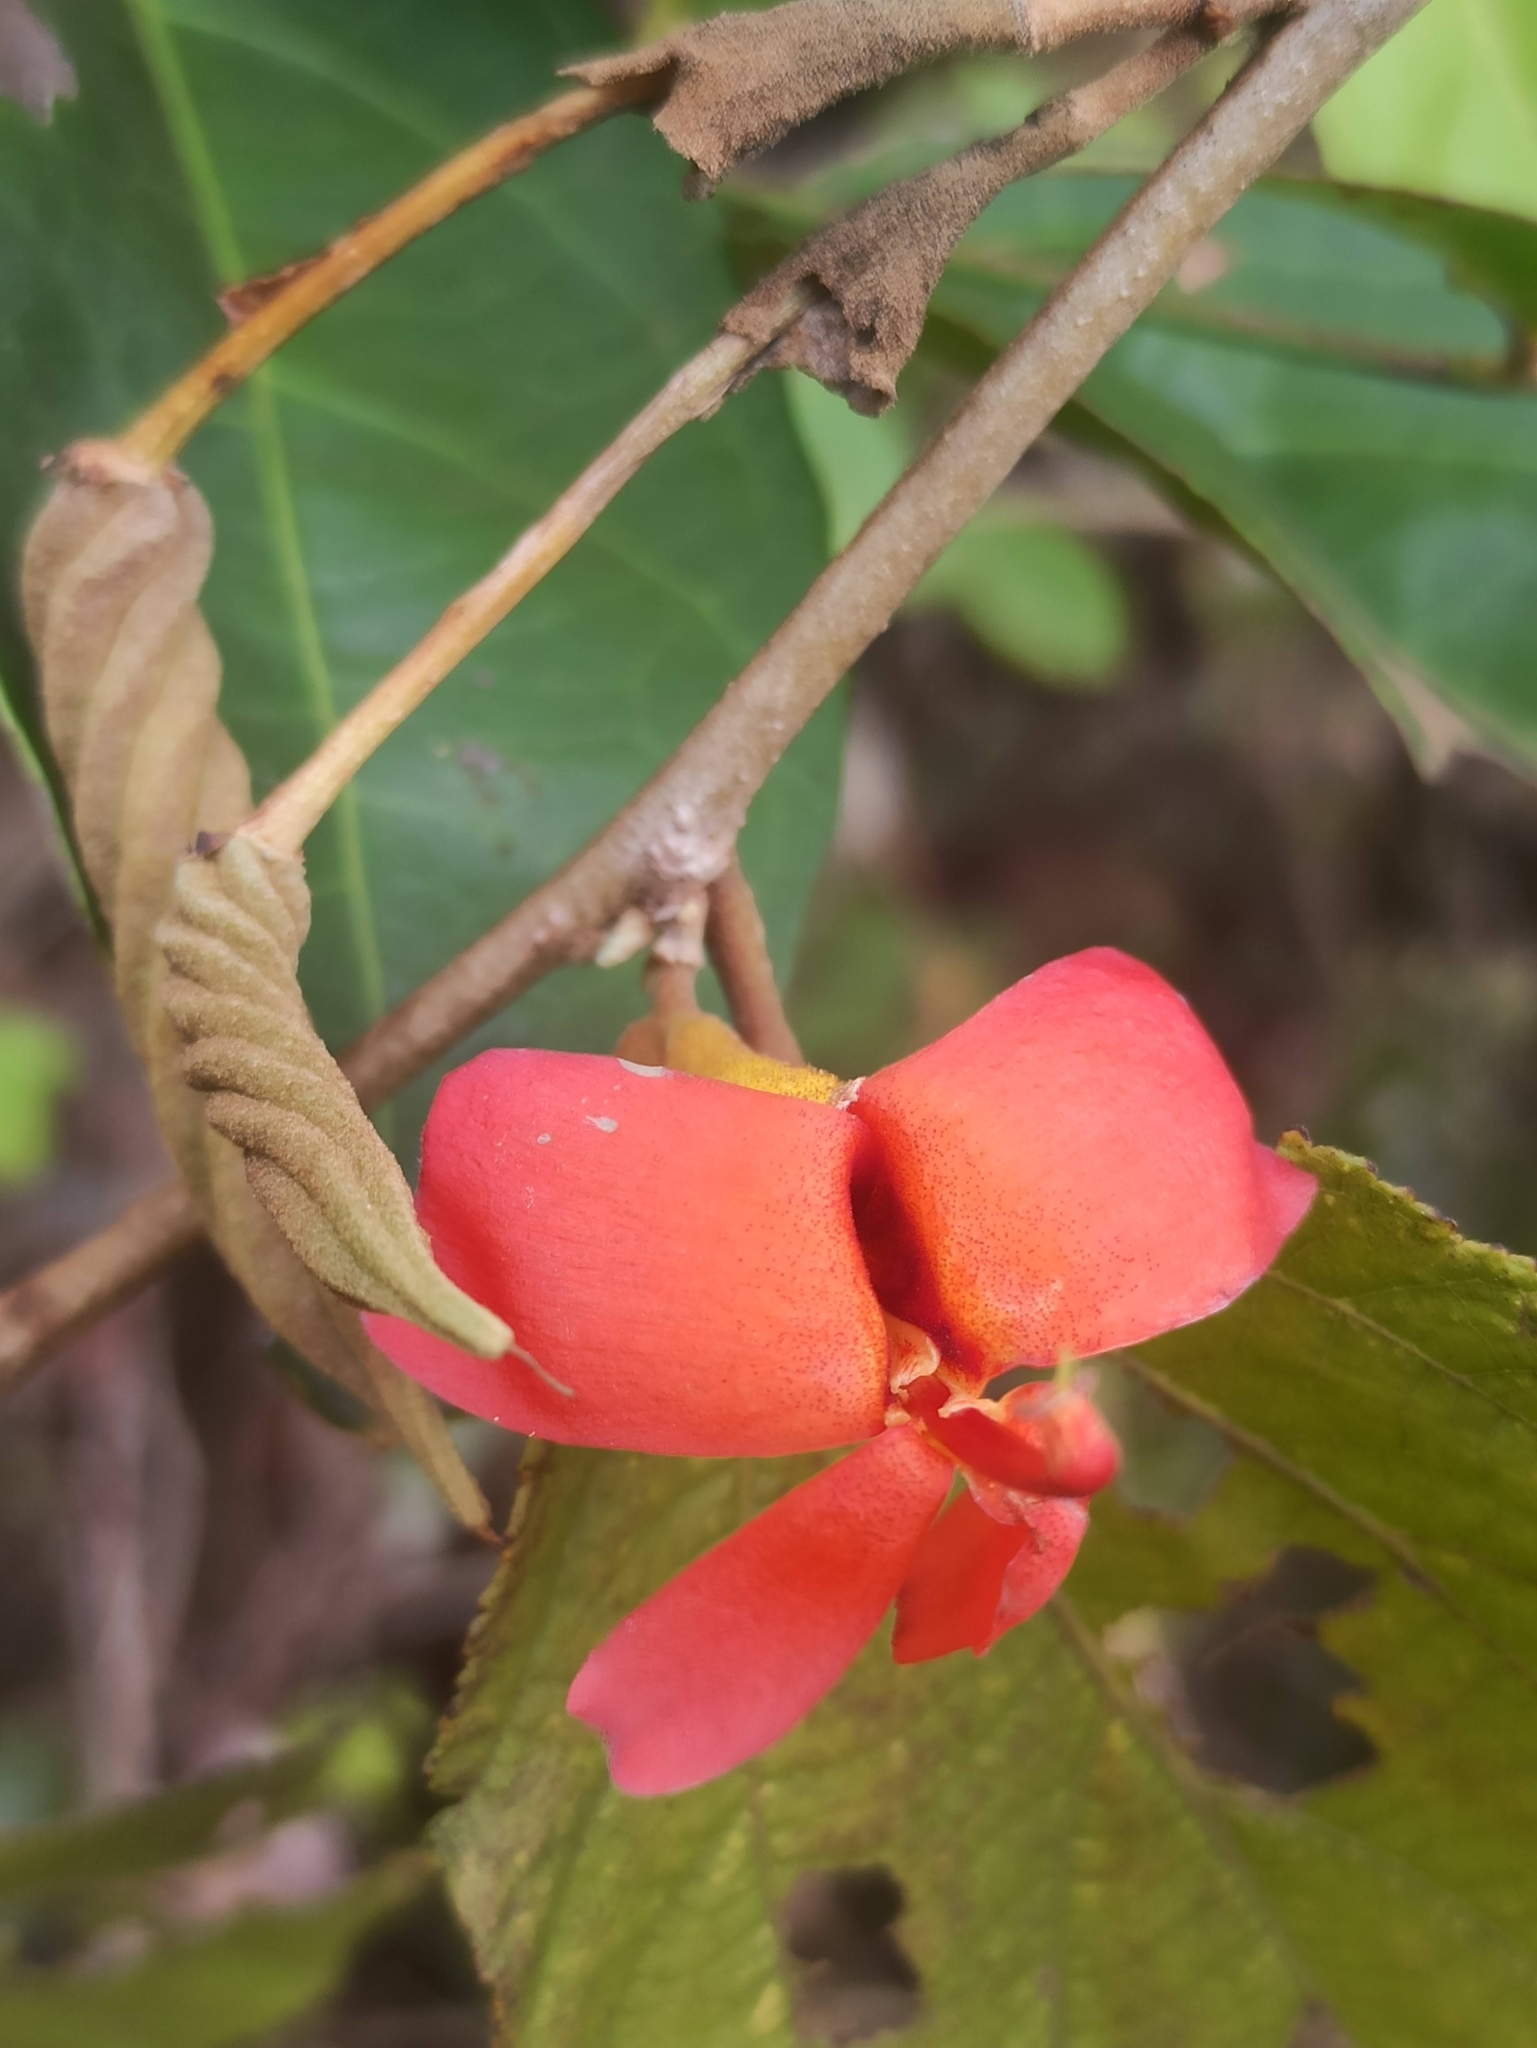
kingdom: Plantae
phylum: Tracheophyta
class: Magnoliopsida
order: Malvales
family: Malvaceae
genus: Helicteres
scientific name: Helicteres isora
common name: East indian screwtree
